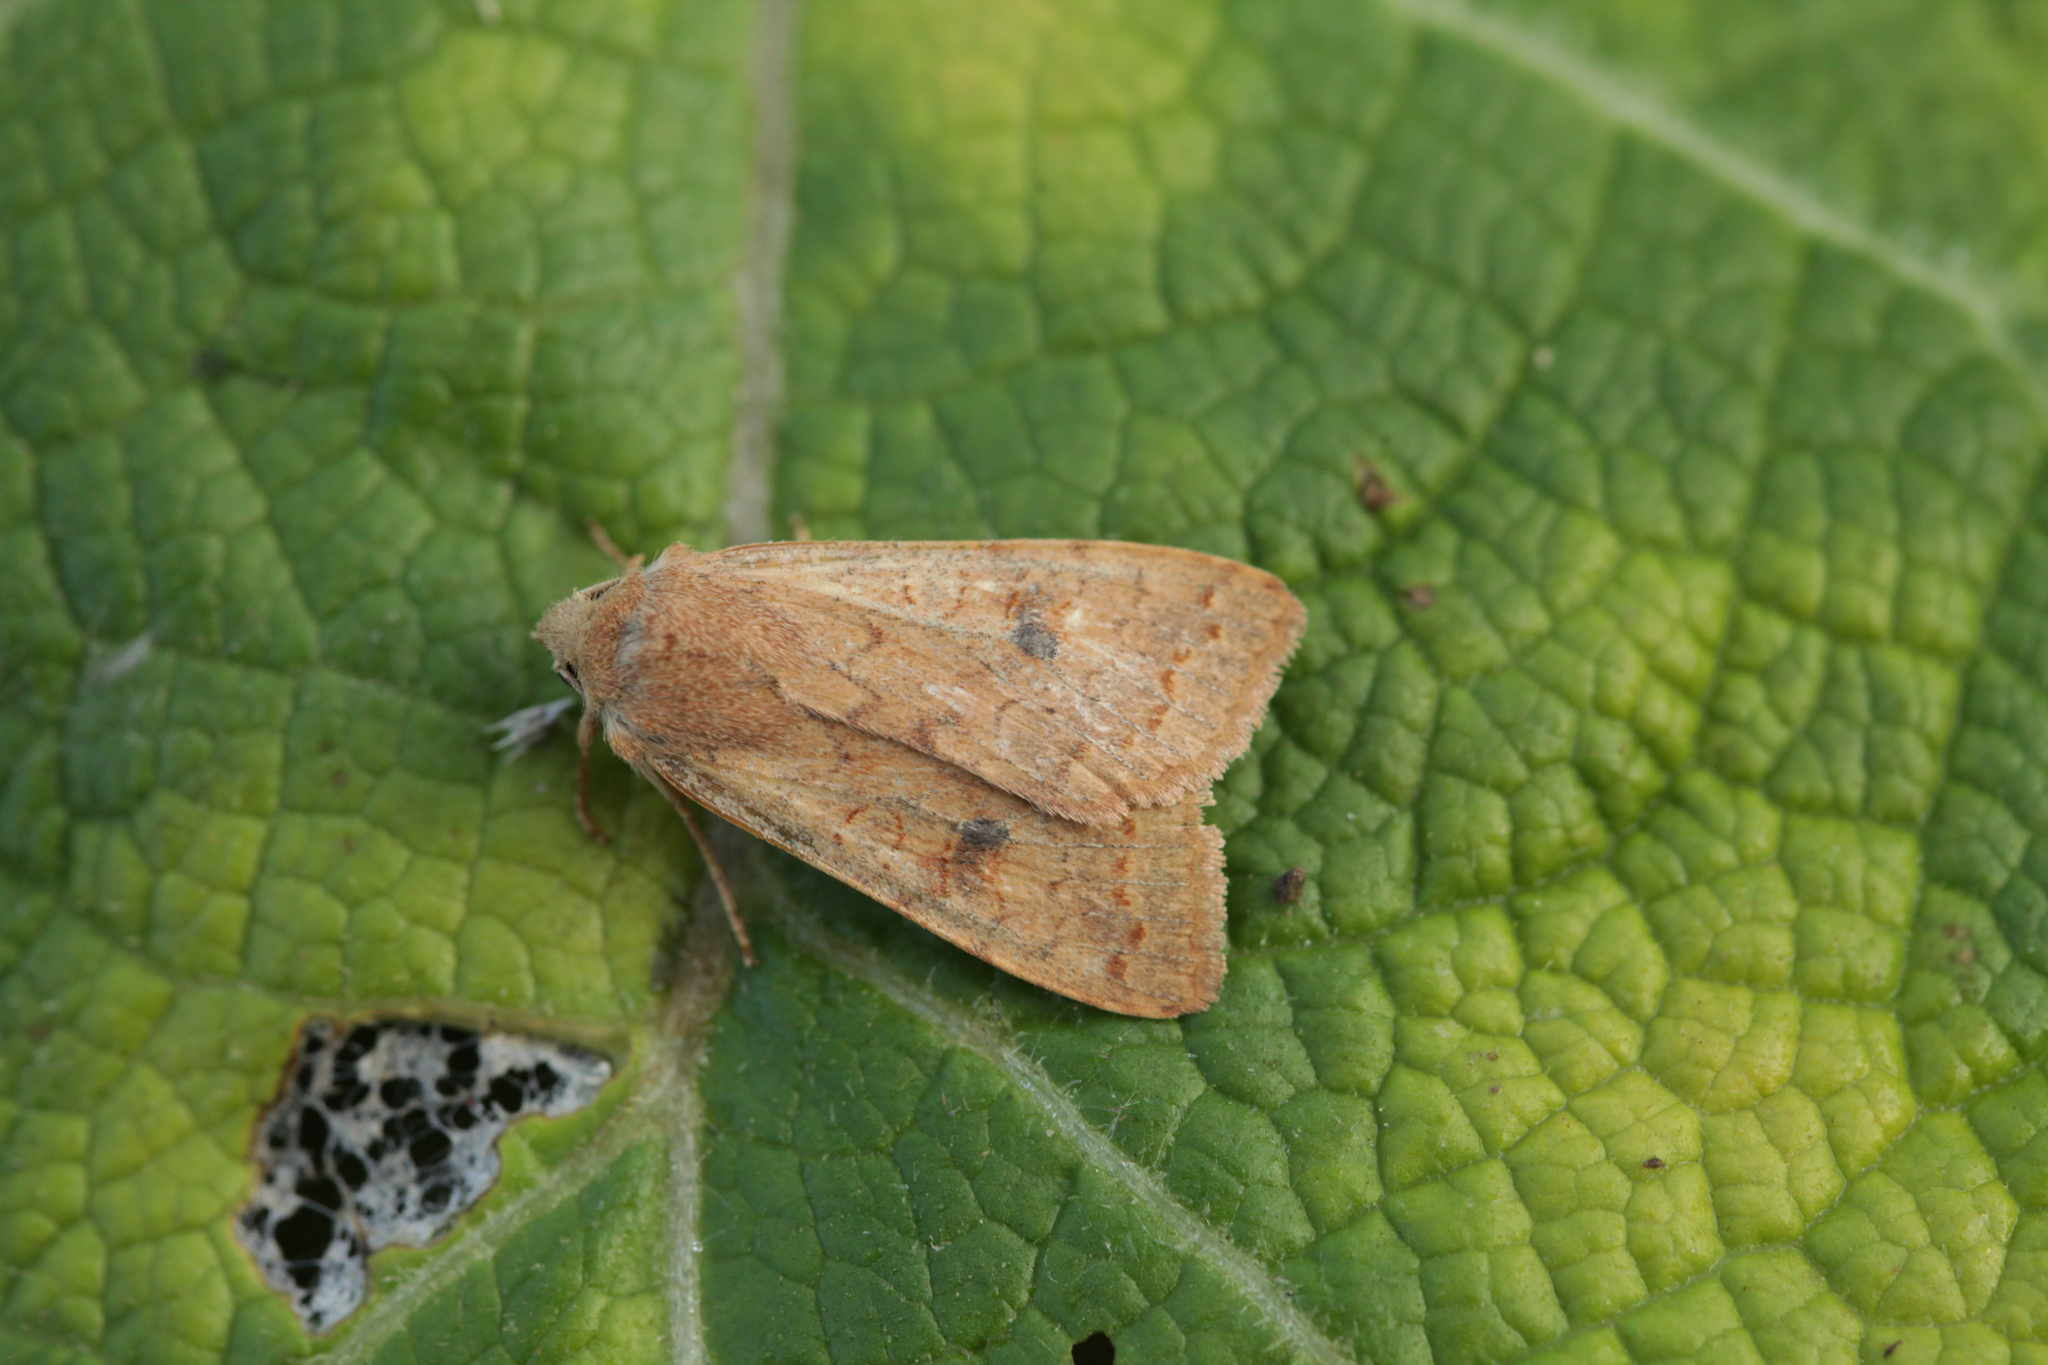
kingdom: Animalia
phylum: Arthropoda
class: Insecta
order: Lepidoptera
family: Noctuidae
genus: Sunira
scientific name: Sunira circellaris
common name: Brick
